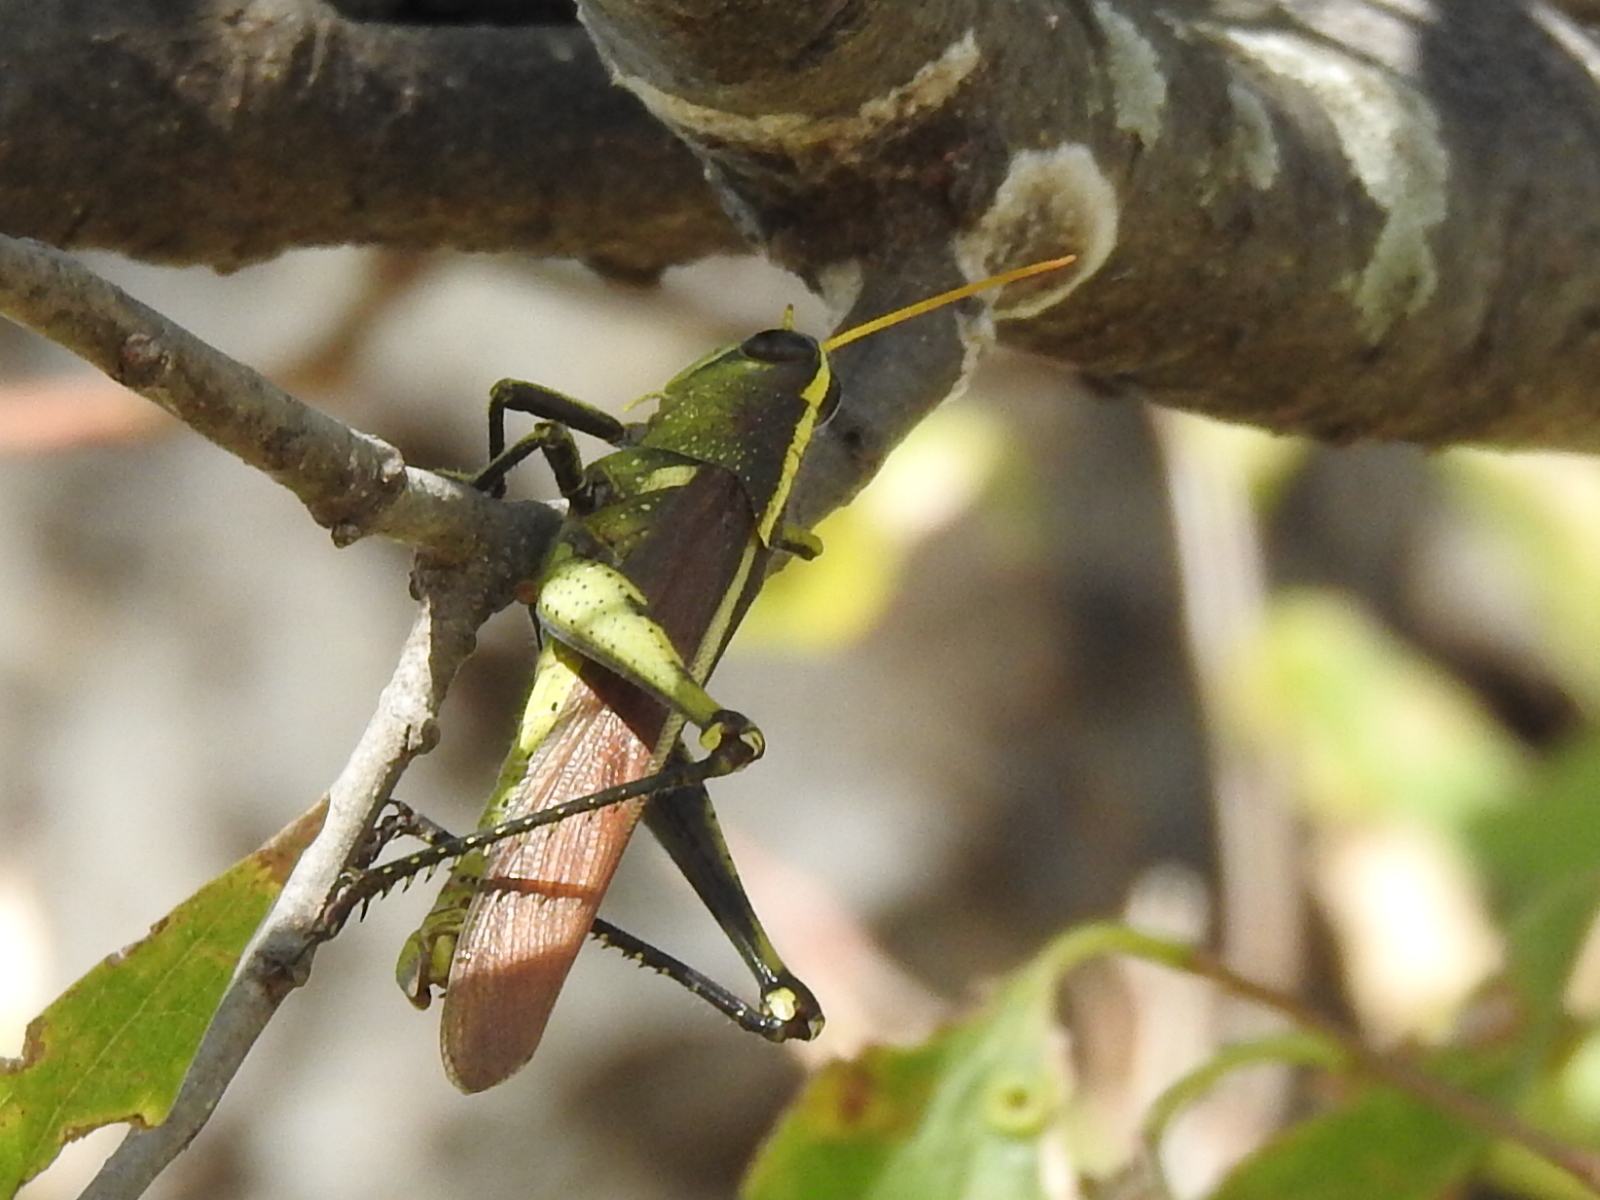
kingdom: Animalia
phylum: Arthropoda
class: Insecta
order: Orthoptera
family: Acrididae
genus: Schistocerca
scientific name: Schistocerca obscura
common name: Obscure bird grasshopper
